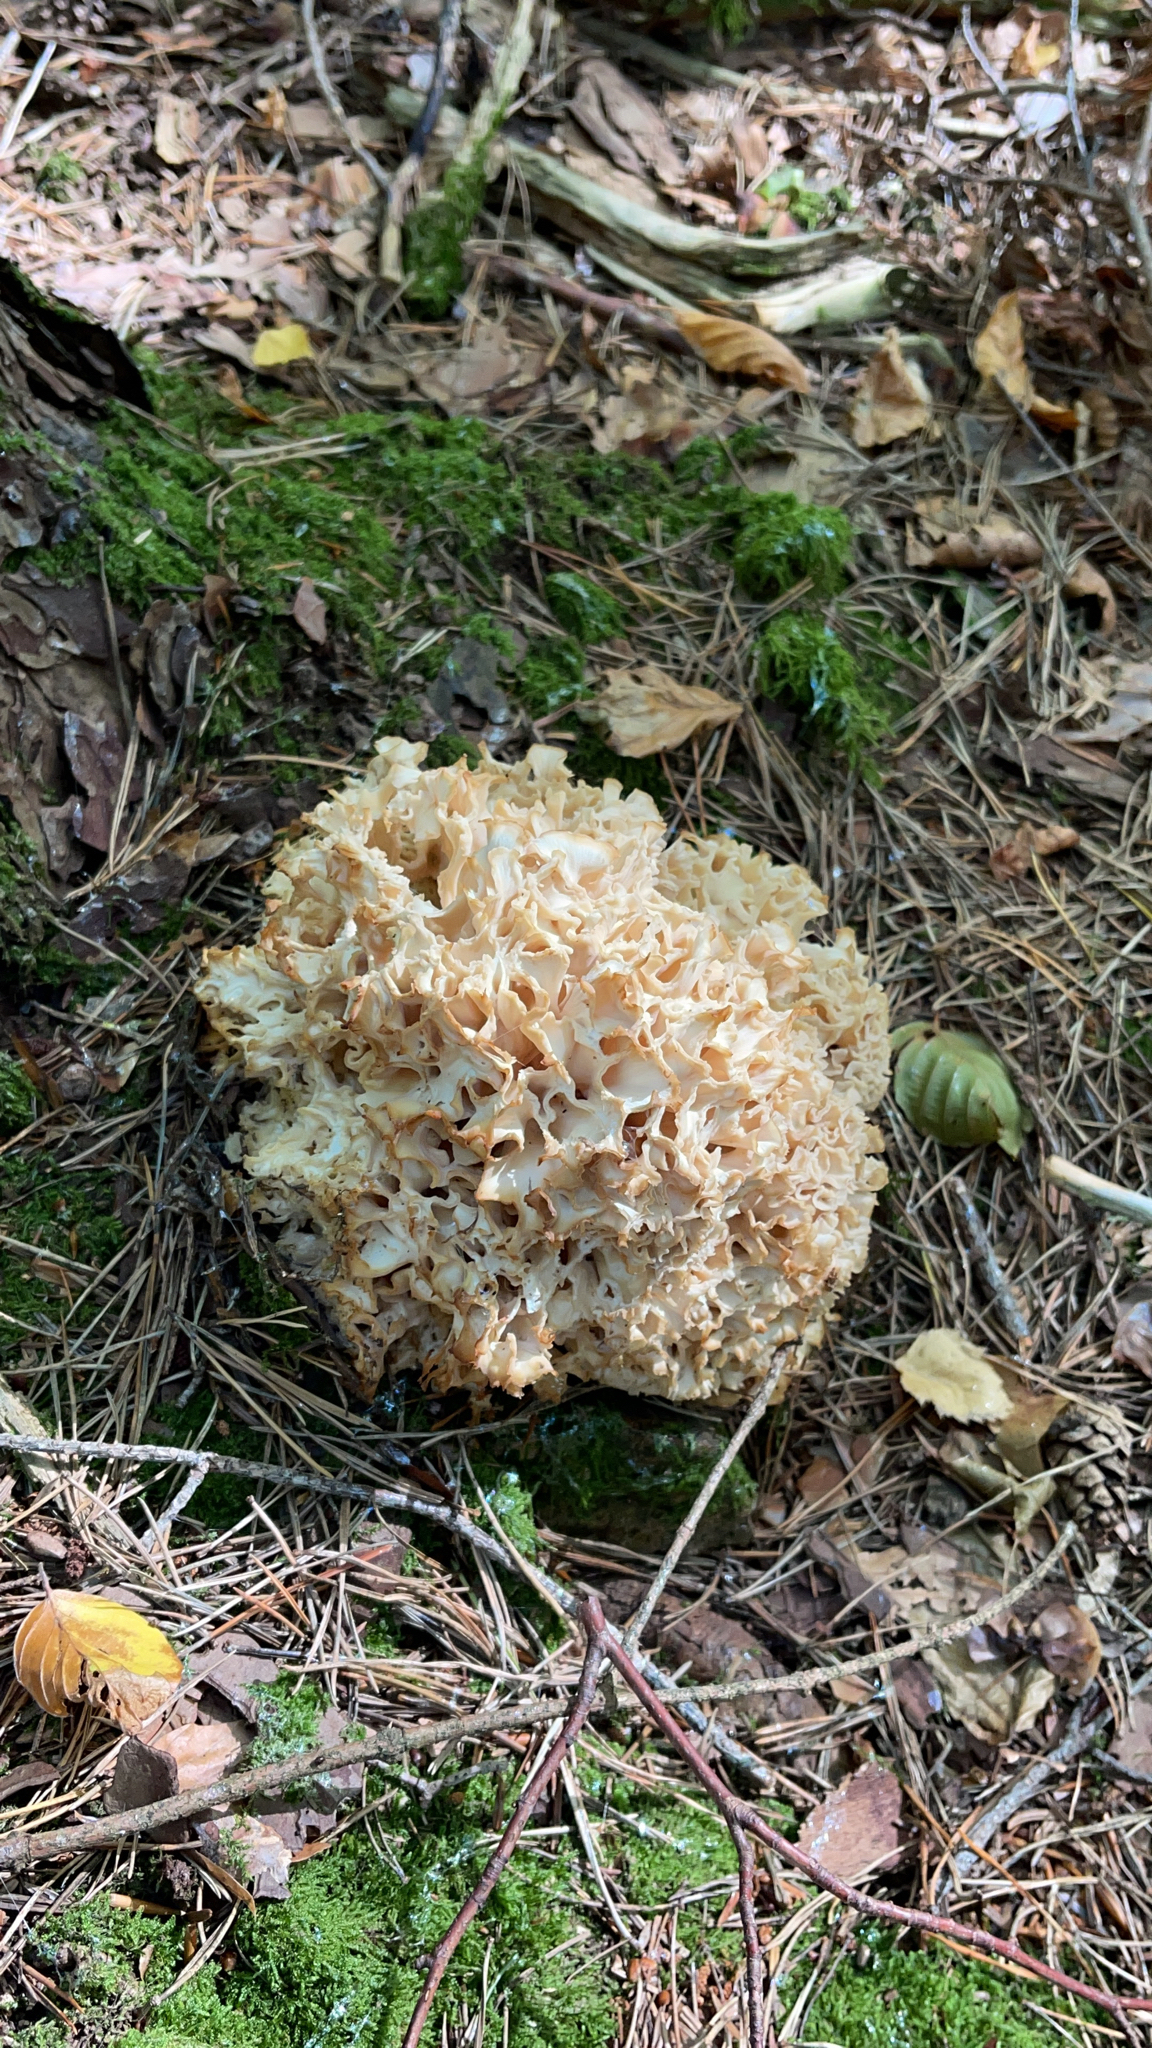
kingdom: Fungi
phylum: Basidiomycota
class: Agaricomycetes
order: Polyporales
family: Sparassidaceae
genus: Sparassis
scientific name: Sparassis crispa
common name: Brain fungus
